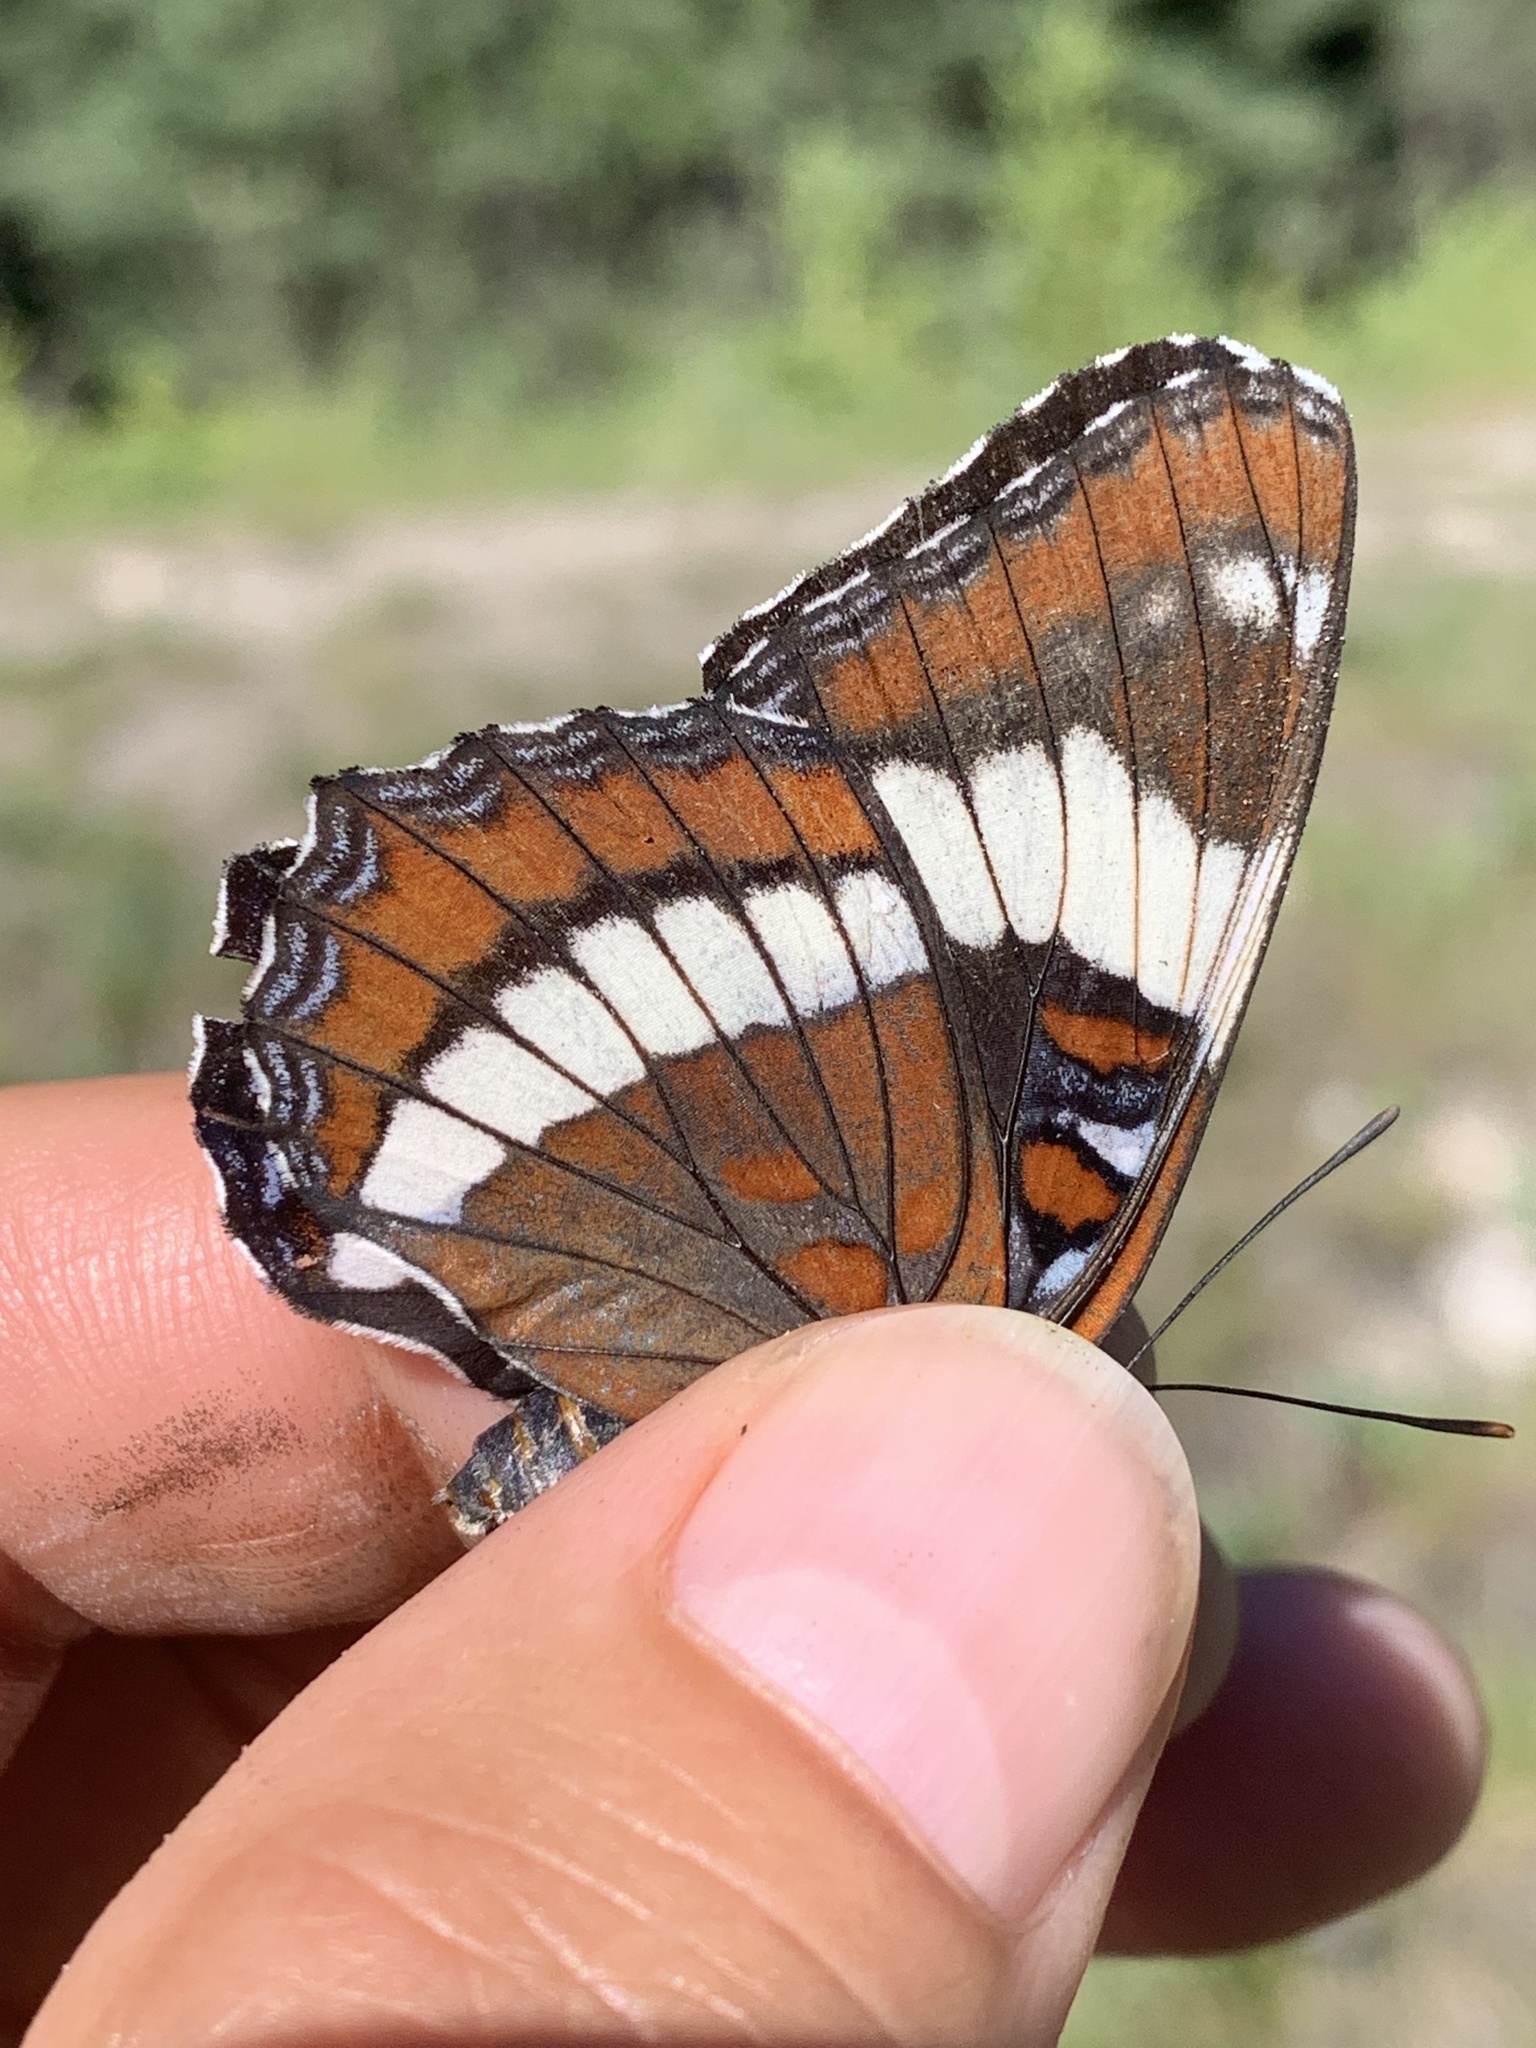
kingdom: Animalia
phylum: Arthropoda
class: Insecta
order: Lepidoptera
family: Nymphalidae
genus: Limenitis
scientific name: Limenitis arthemis
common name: Red-spotted admiral
